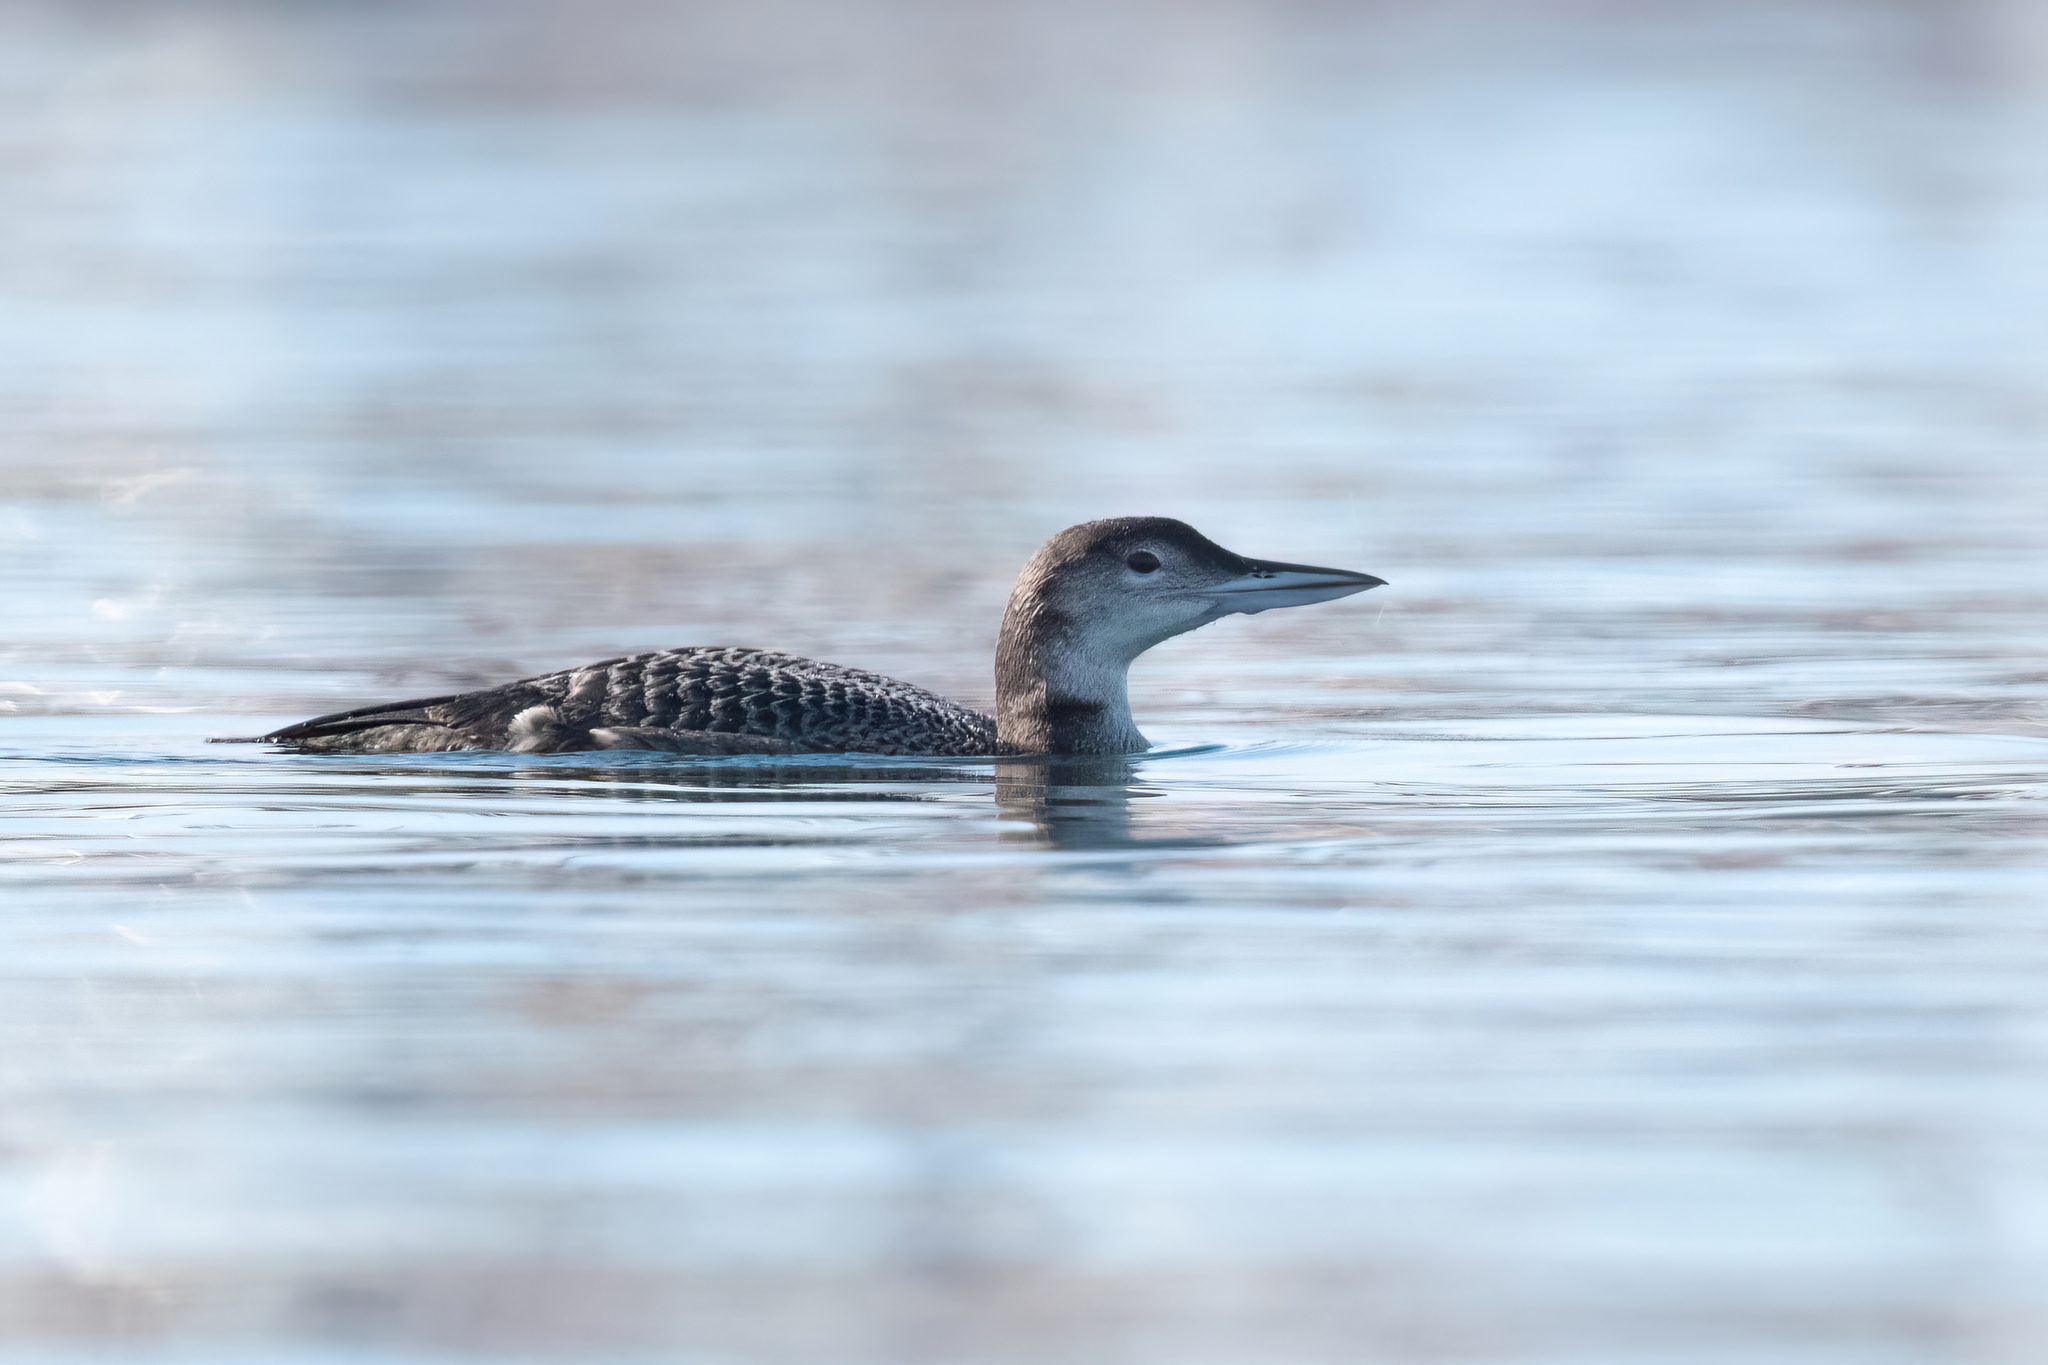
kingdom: Animalia
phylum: Chordata
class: Aves
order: Gaviiformes
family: Gaviidae
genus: Gavia
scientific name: Gavia immer
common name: Common loon
